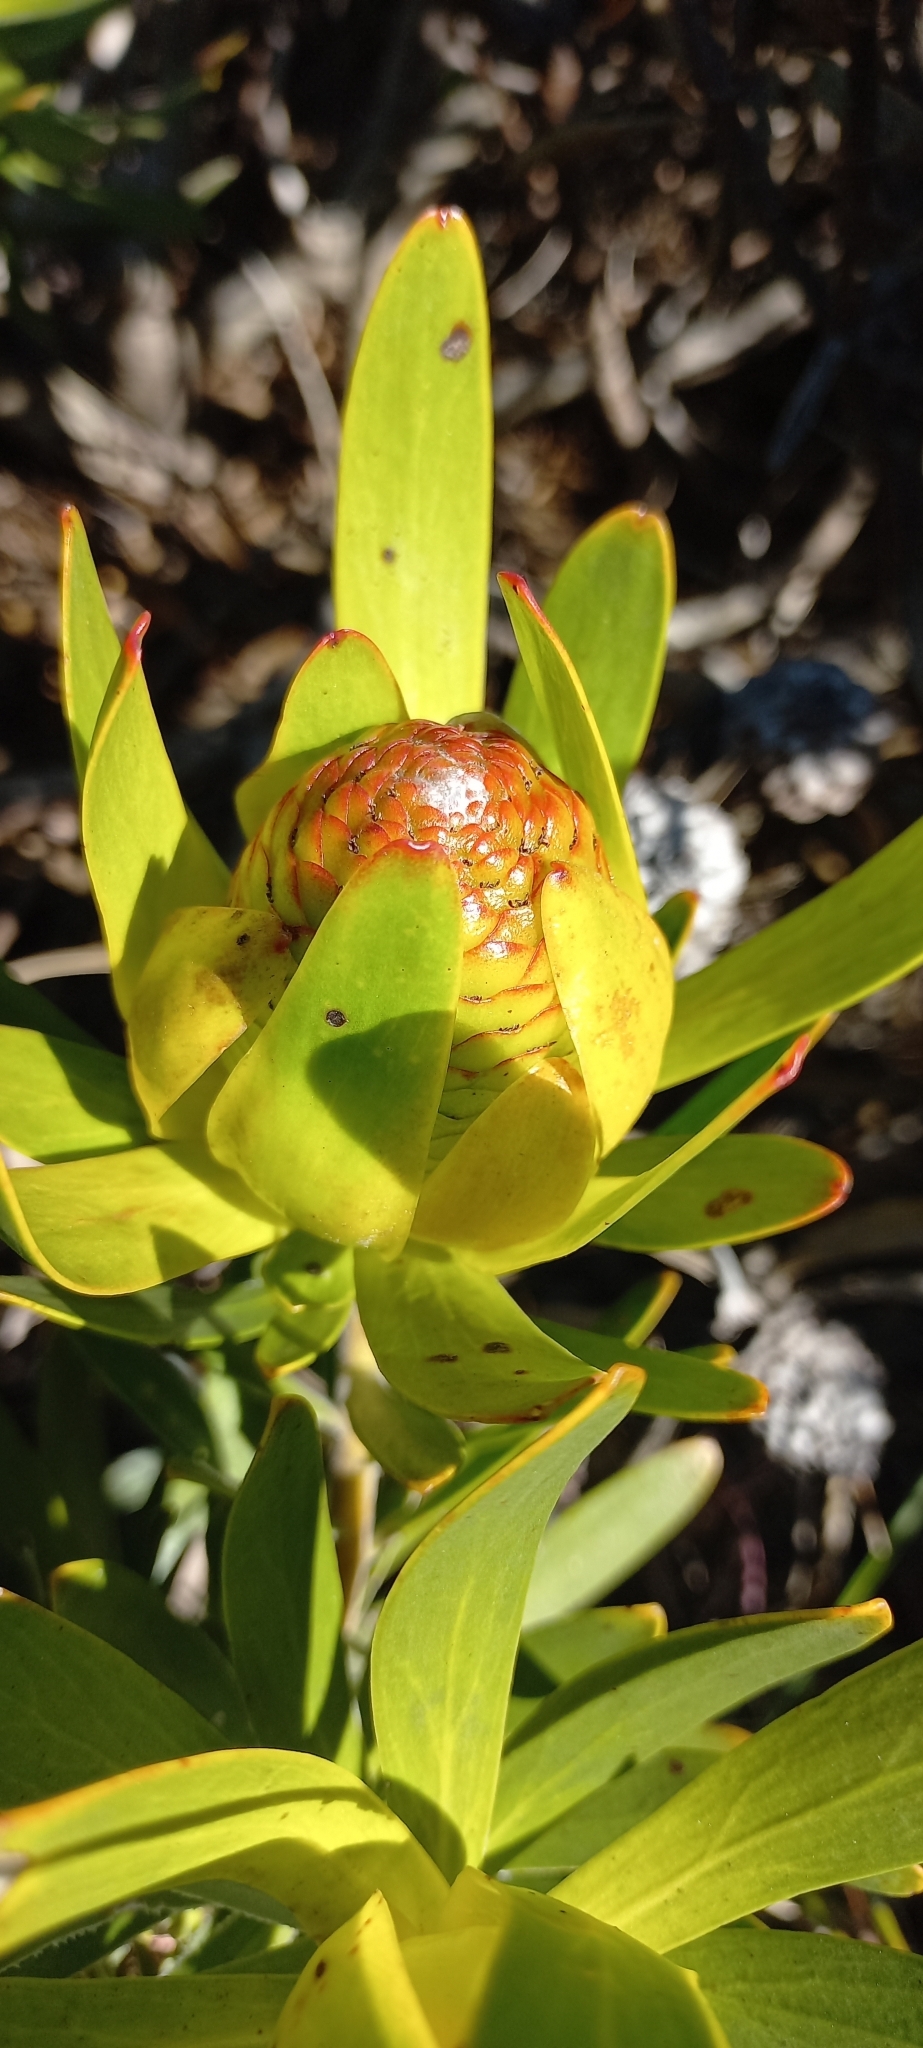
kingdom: Plantae
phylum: Tracheophyta
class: Magnoliopsida
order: Proteales
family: Proteaceae
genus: Leucadendron
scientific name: Leucadendron laureolum
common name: Golden sunshinebush
